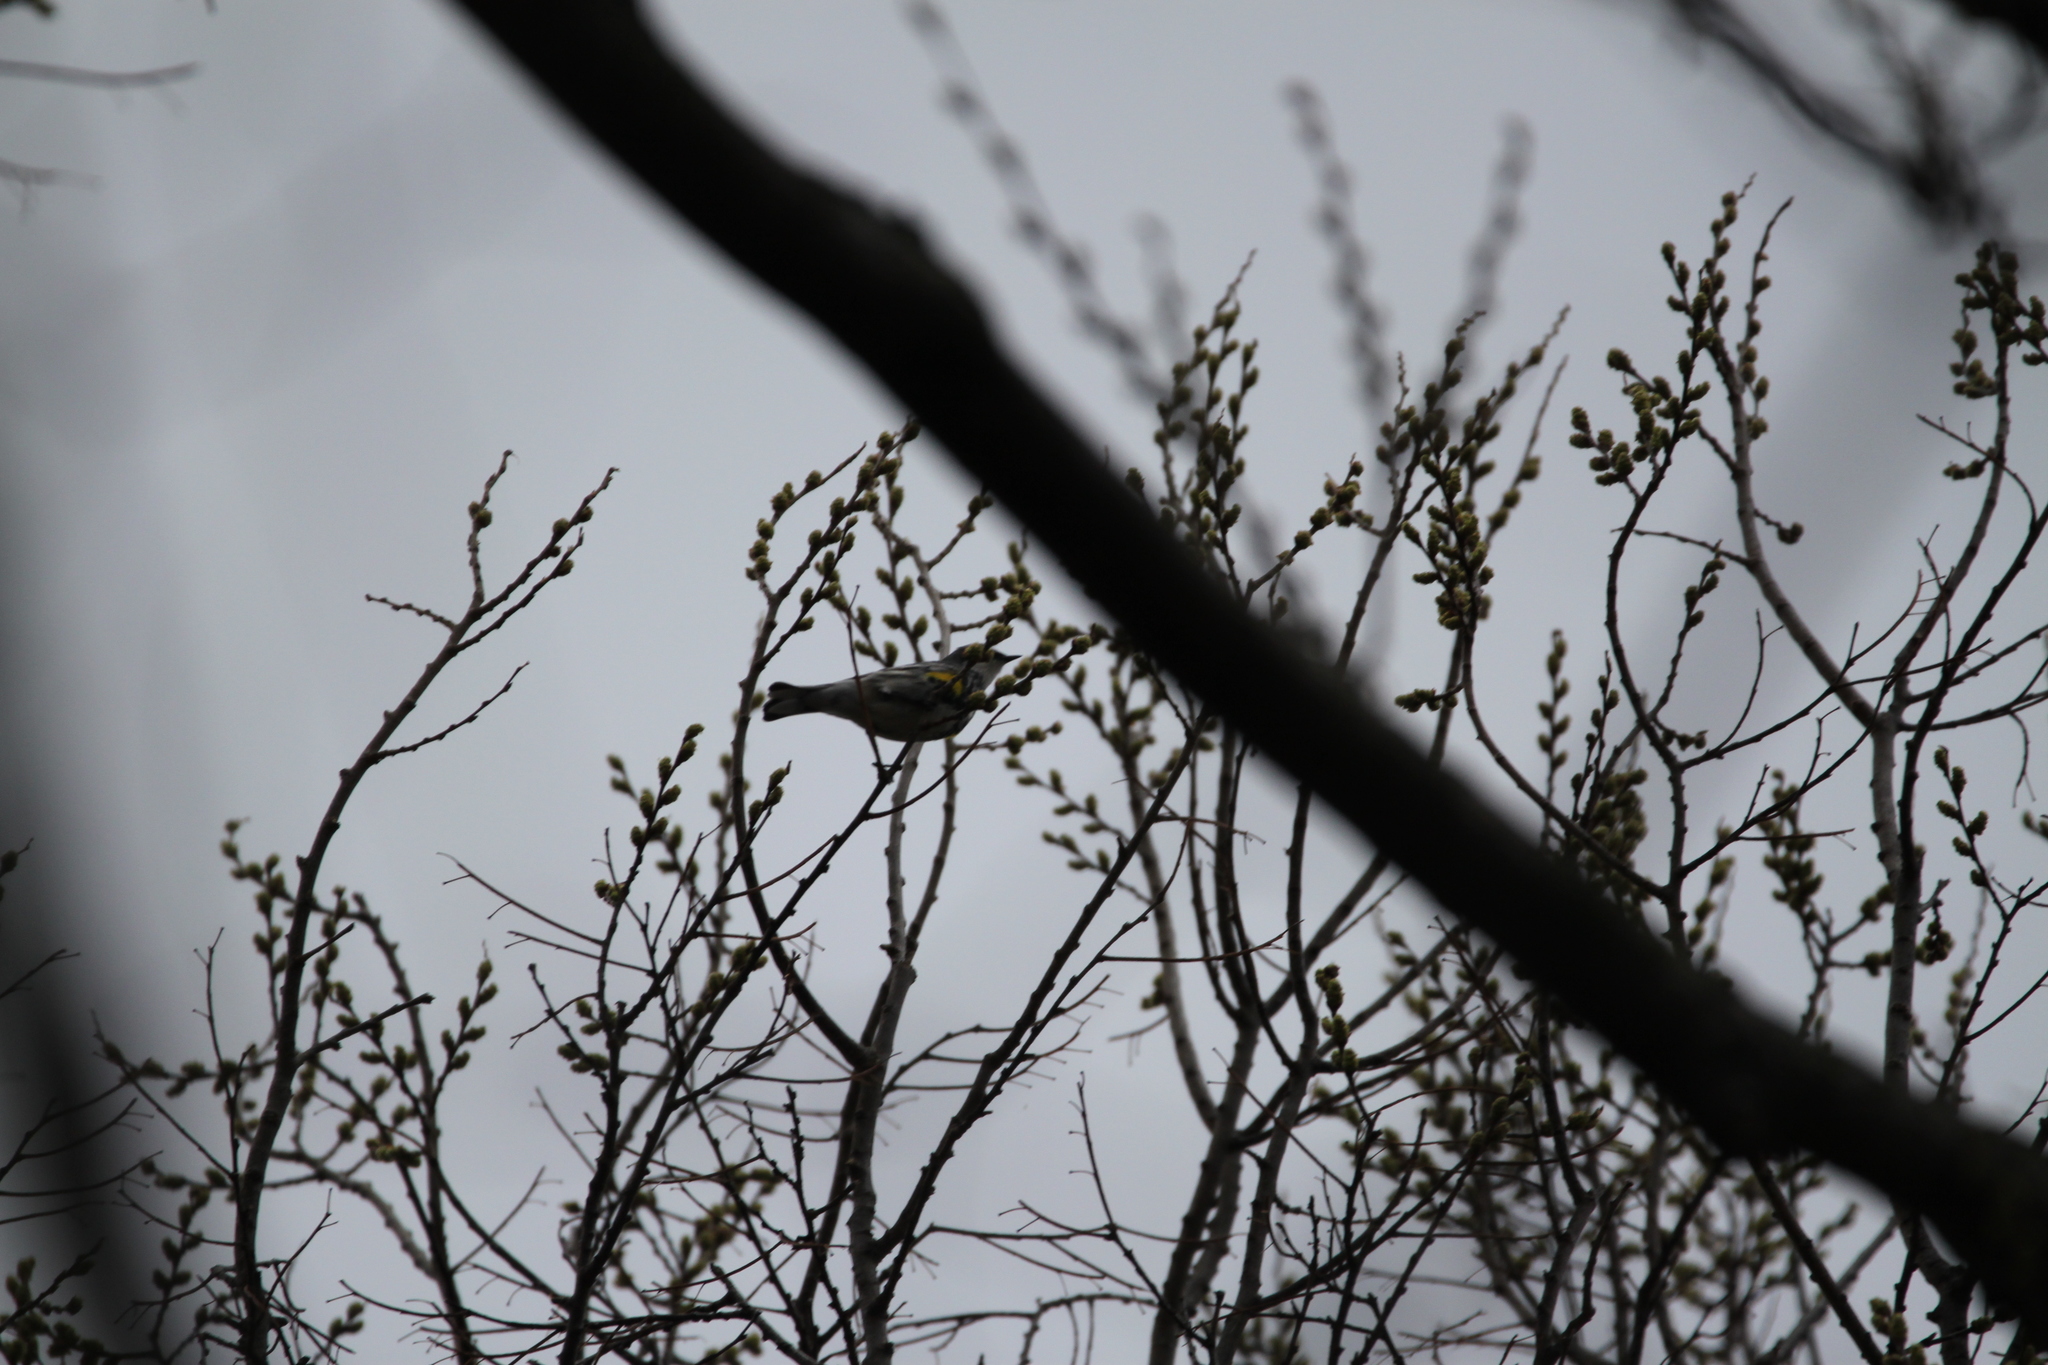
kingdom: Animalia
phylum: Chordata
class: Aves
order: Passeriformes
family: Parulidae
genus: Setophaga
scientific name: Setophaga coronata
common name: Myrtle warbler
